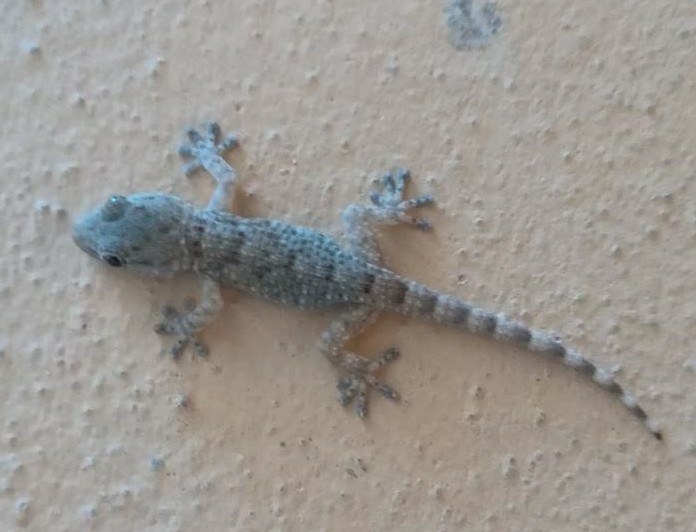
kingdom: Animalia
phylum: Chordata
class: Squamata
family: Phyllodactylidae
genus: Tarentola
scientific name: Tarentola mauritanica
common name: Moorish gecko
